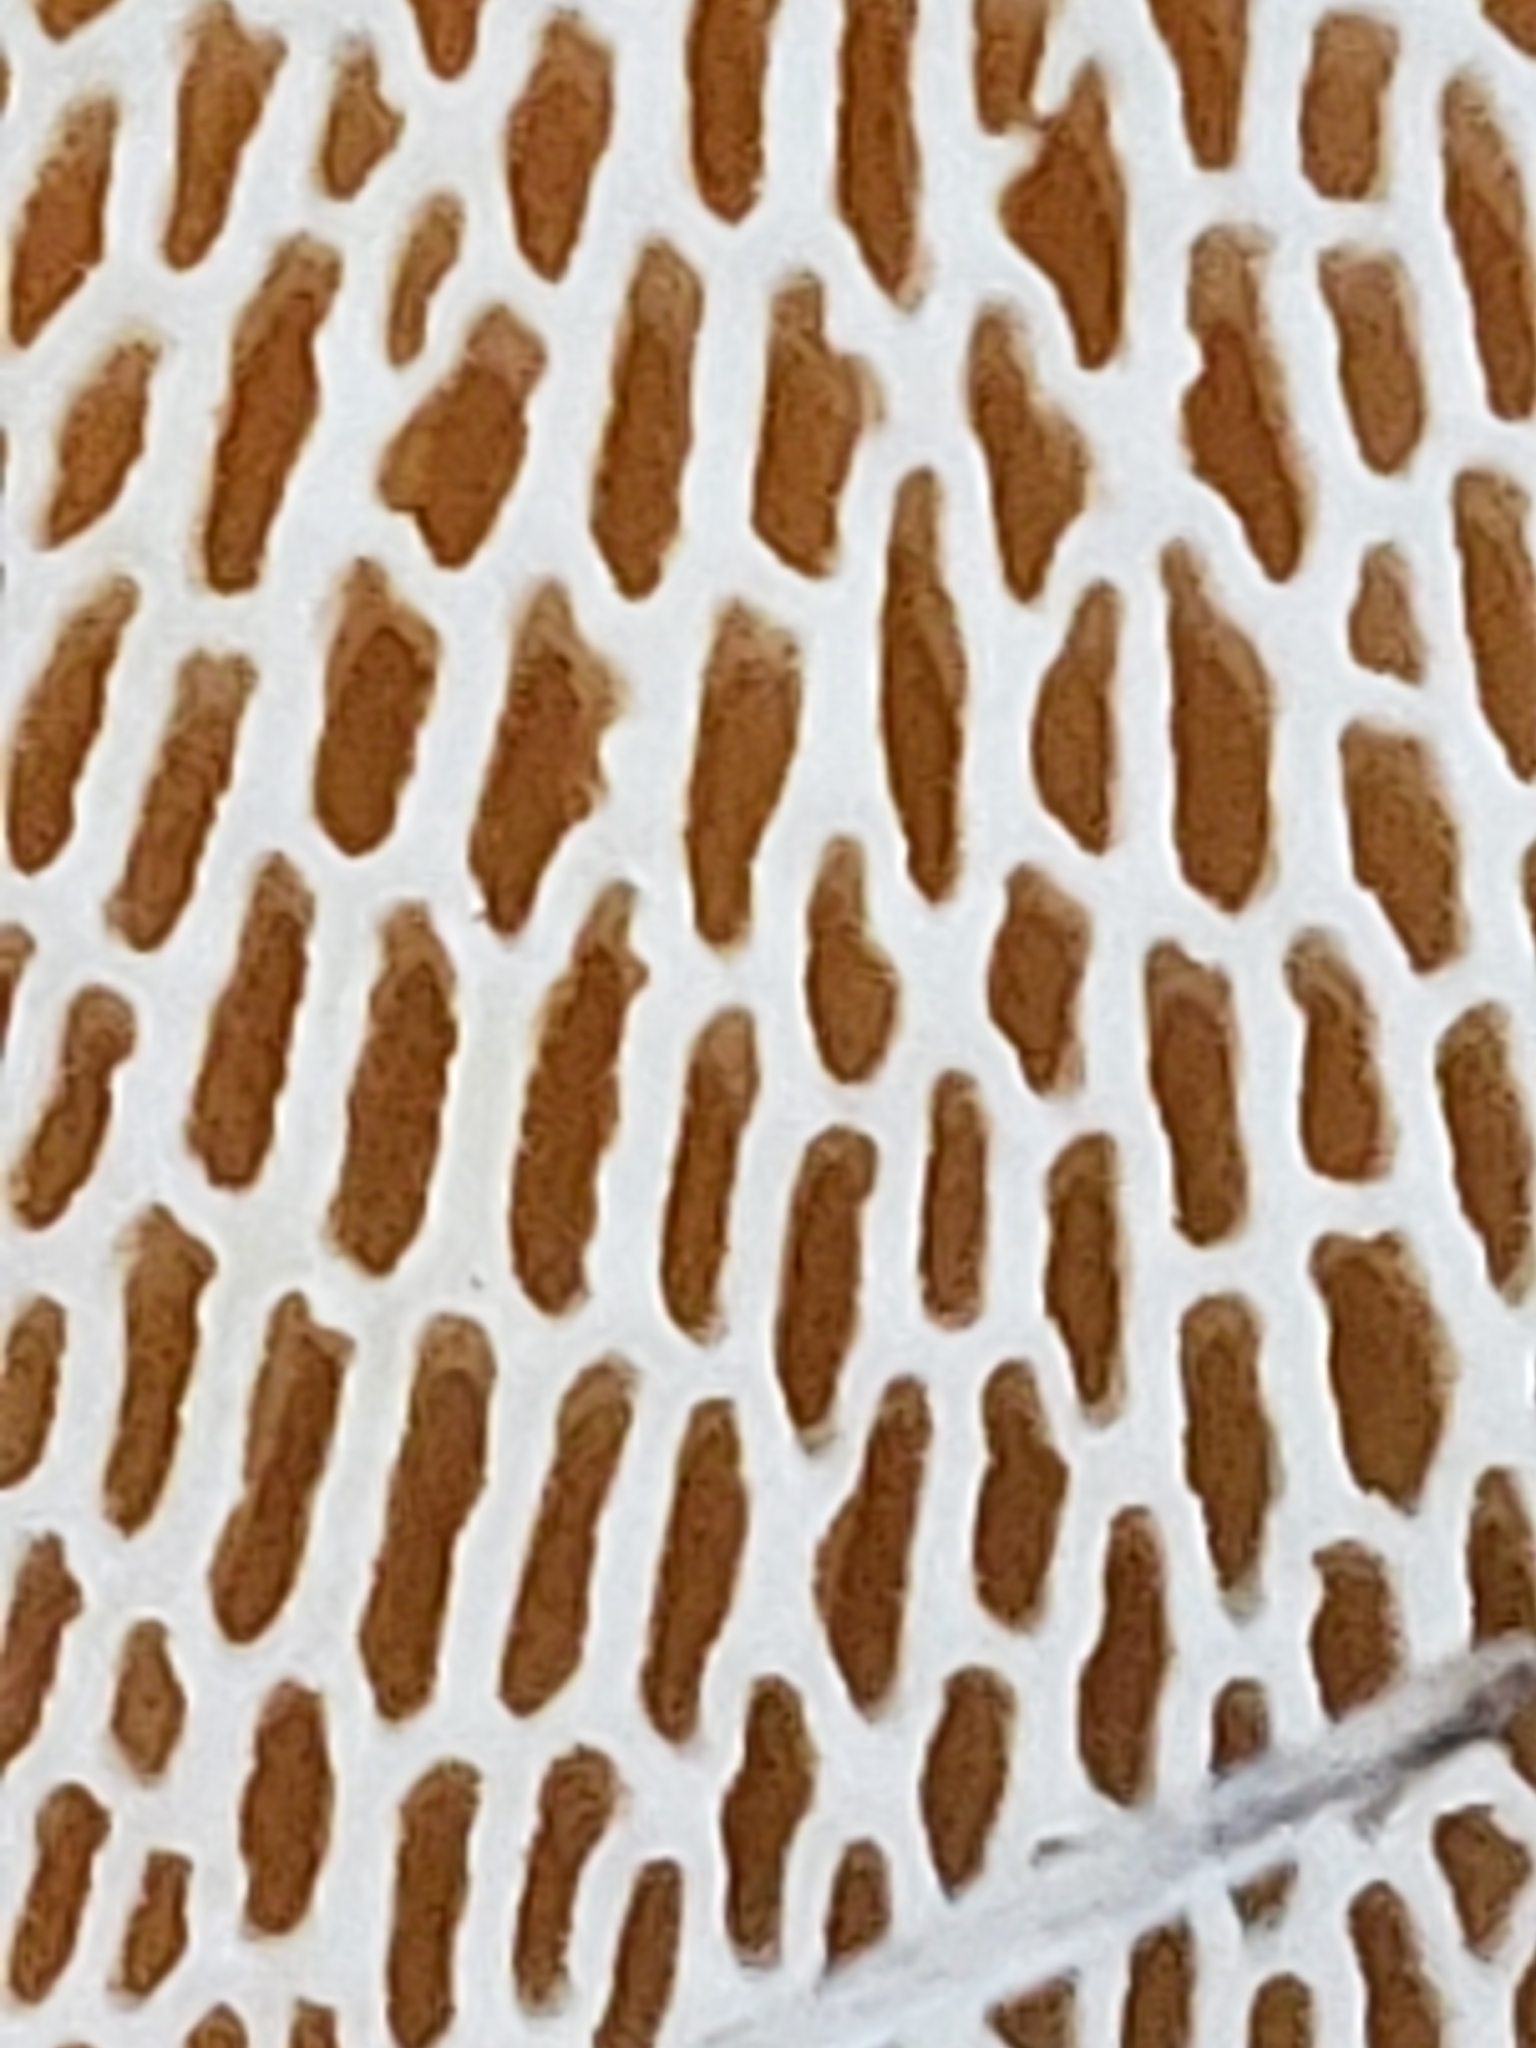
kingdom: Fungi
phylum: Basidiomycota
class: Agaricomycetes
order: Polyporales
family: Polyporaceae
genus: Neofavolus
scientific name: Neofavolus alveolaris
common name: Hexagonal-pored polypore
